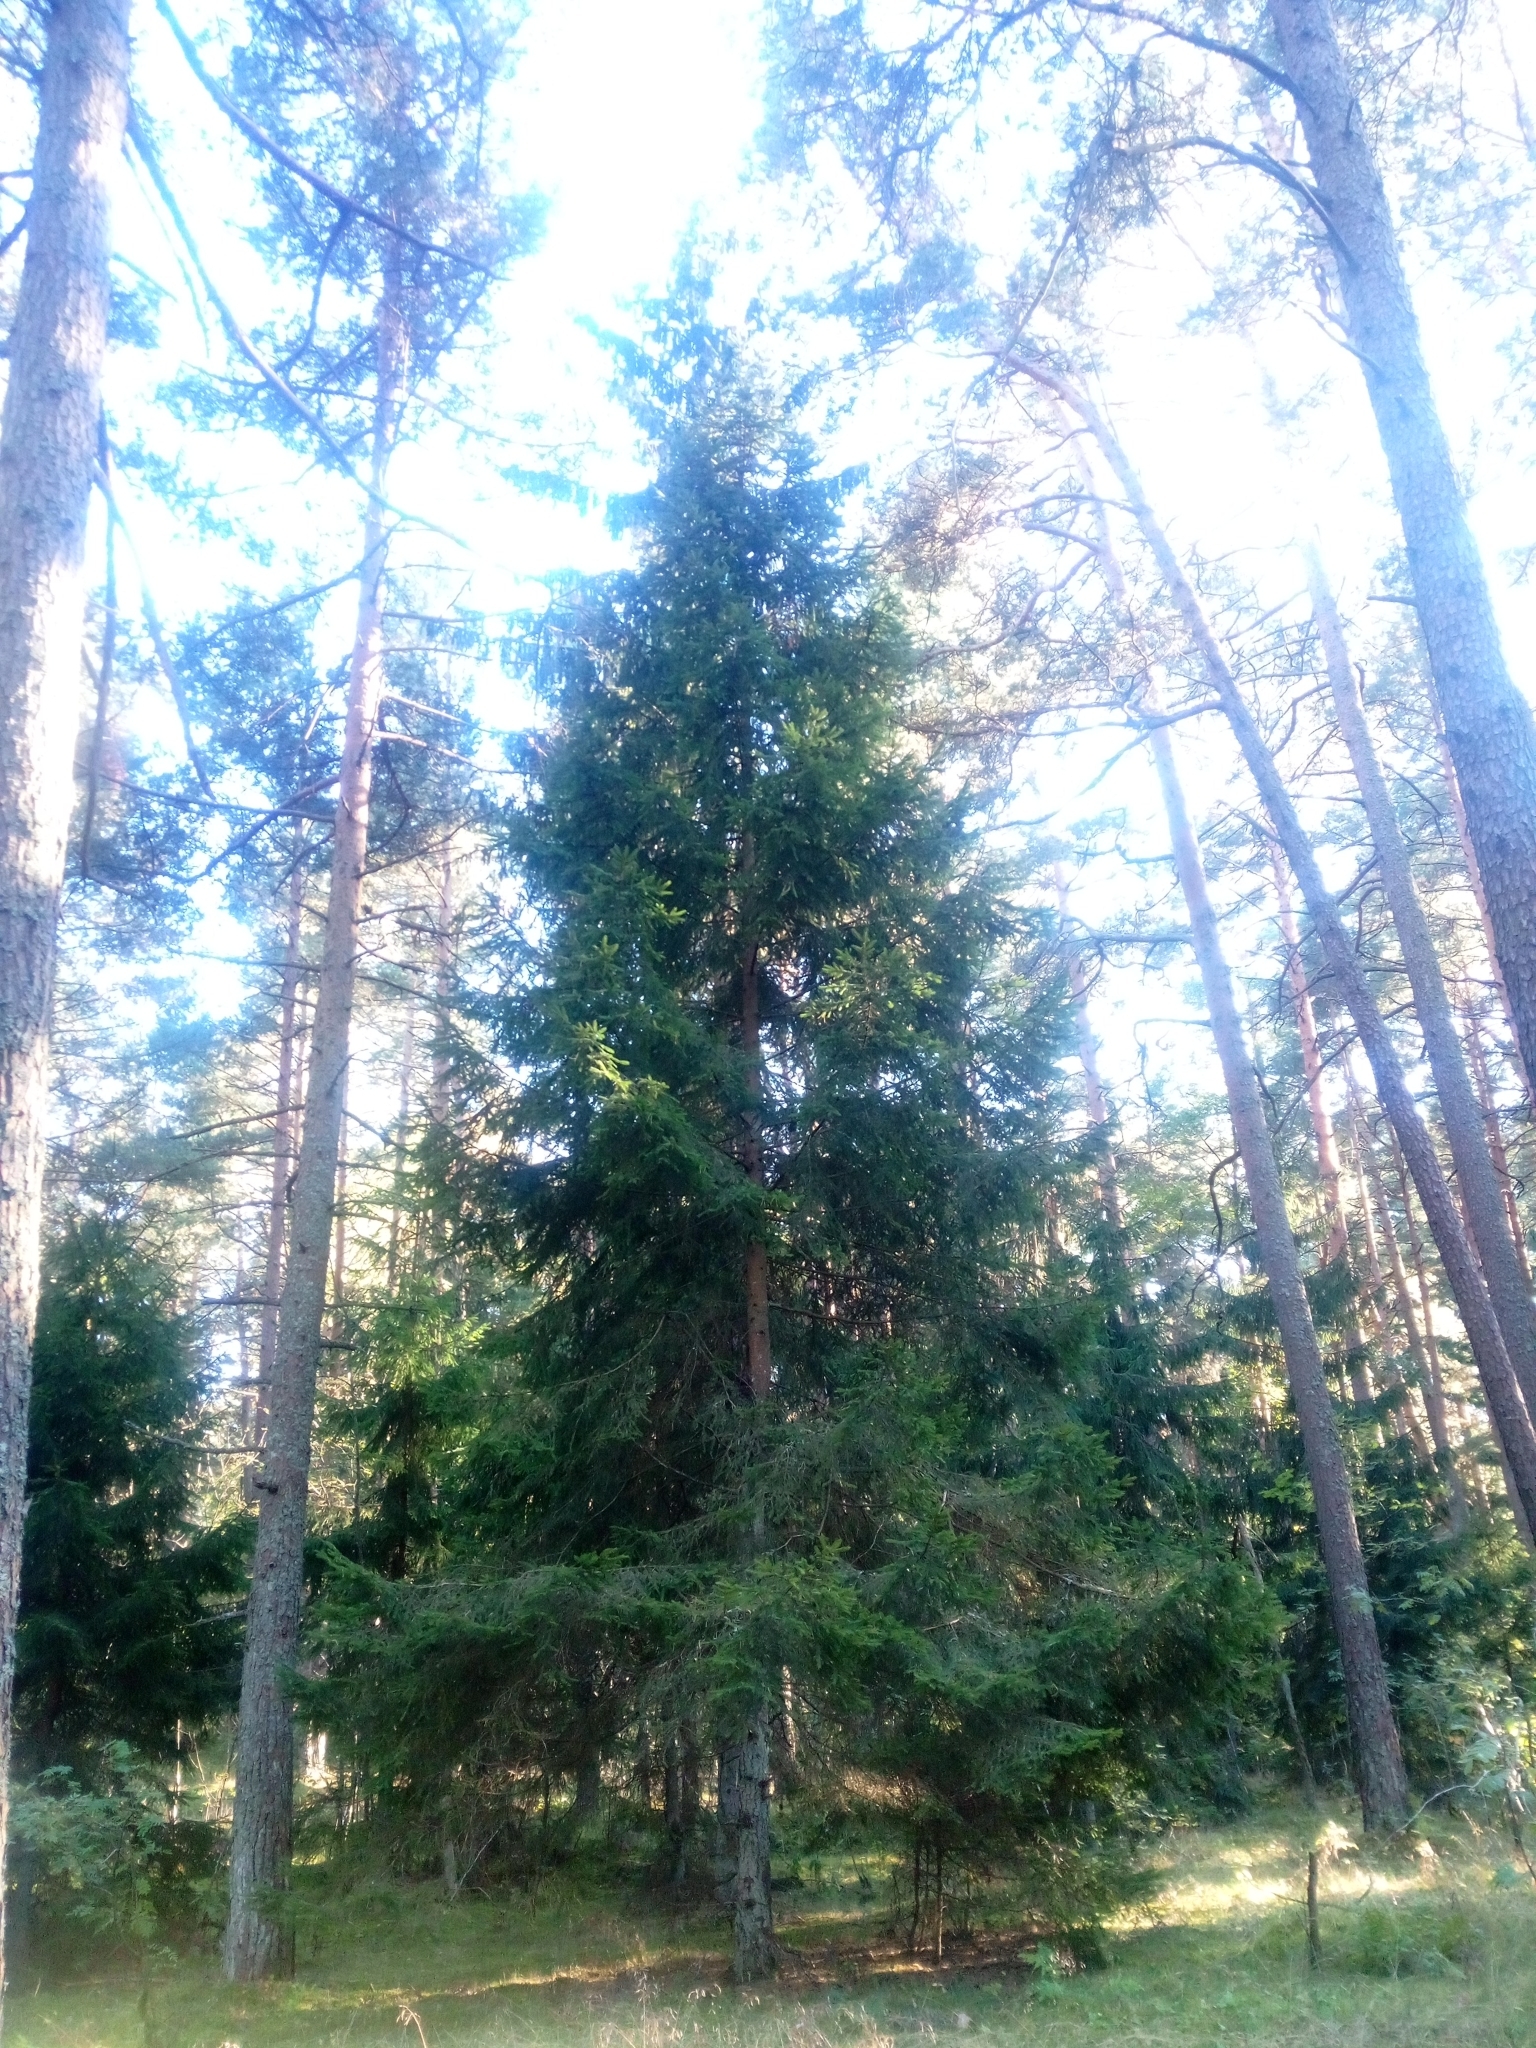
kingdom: Plantae
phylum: Tracheophyta
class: Pinopsida
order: Pinales
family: Pinaceae
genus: Picea
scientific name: Picea abies
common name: Norway spruce
